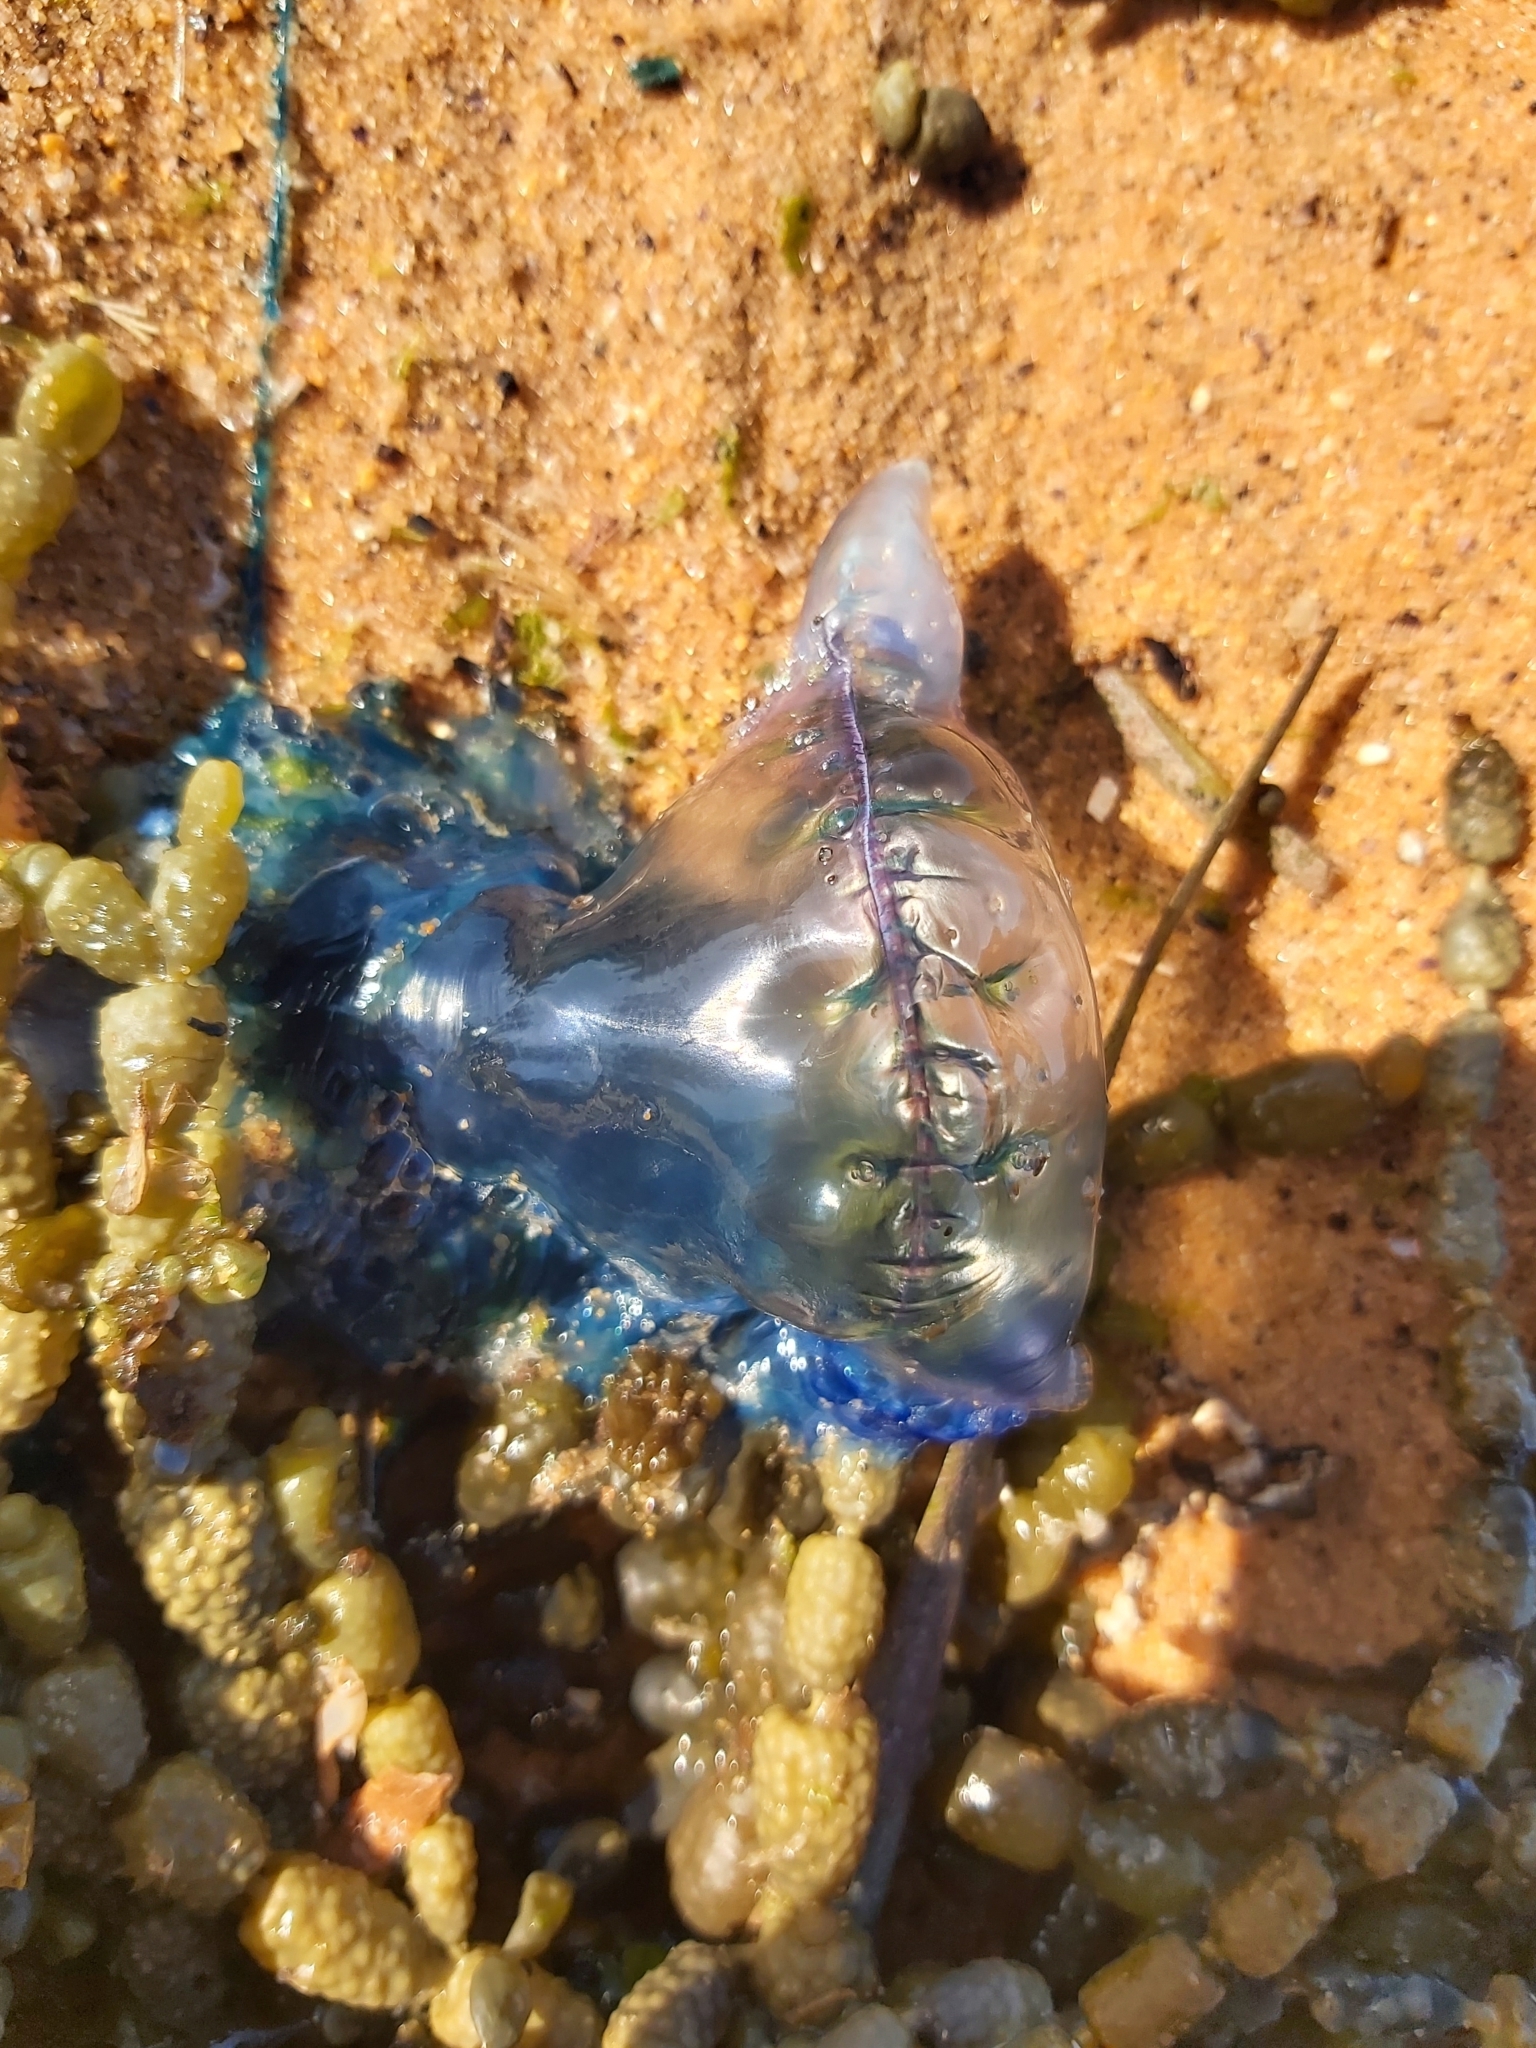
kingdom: Animalia
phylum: Cnidaria
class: Hydrozoa
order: Siphonophorae
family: Physaliidae
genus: Physalia
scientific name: Physalia physalis
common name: Portuguese man-of-war
